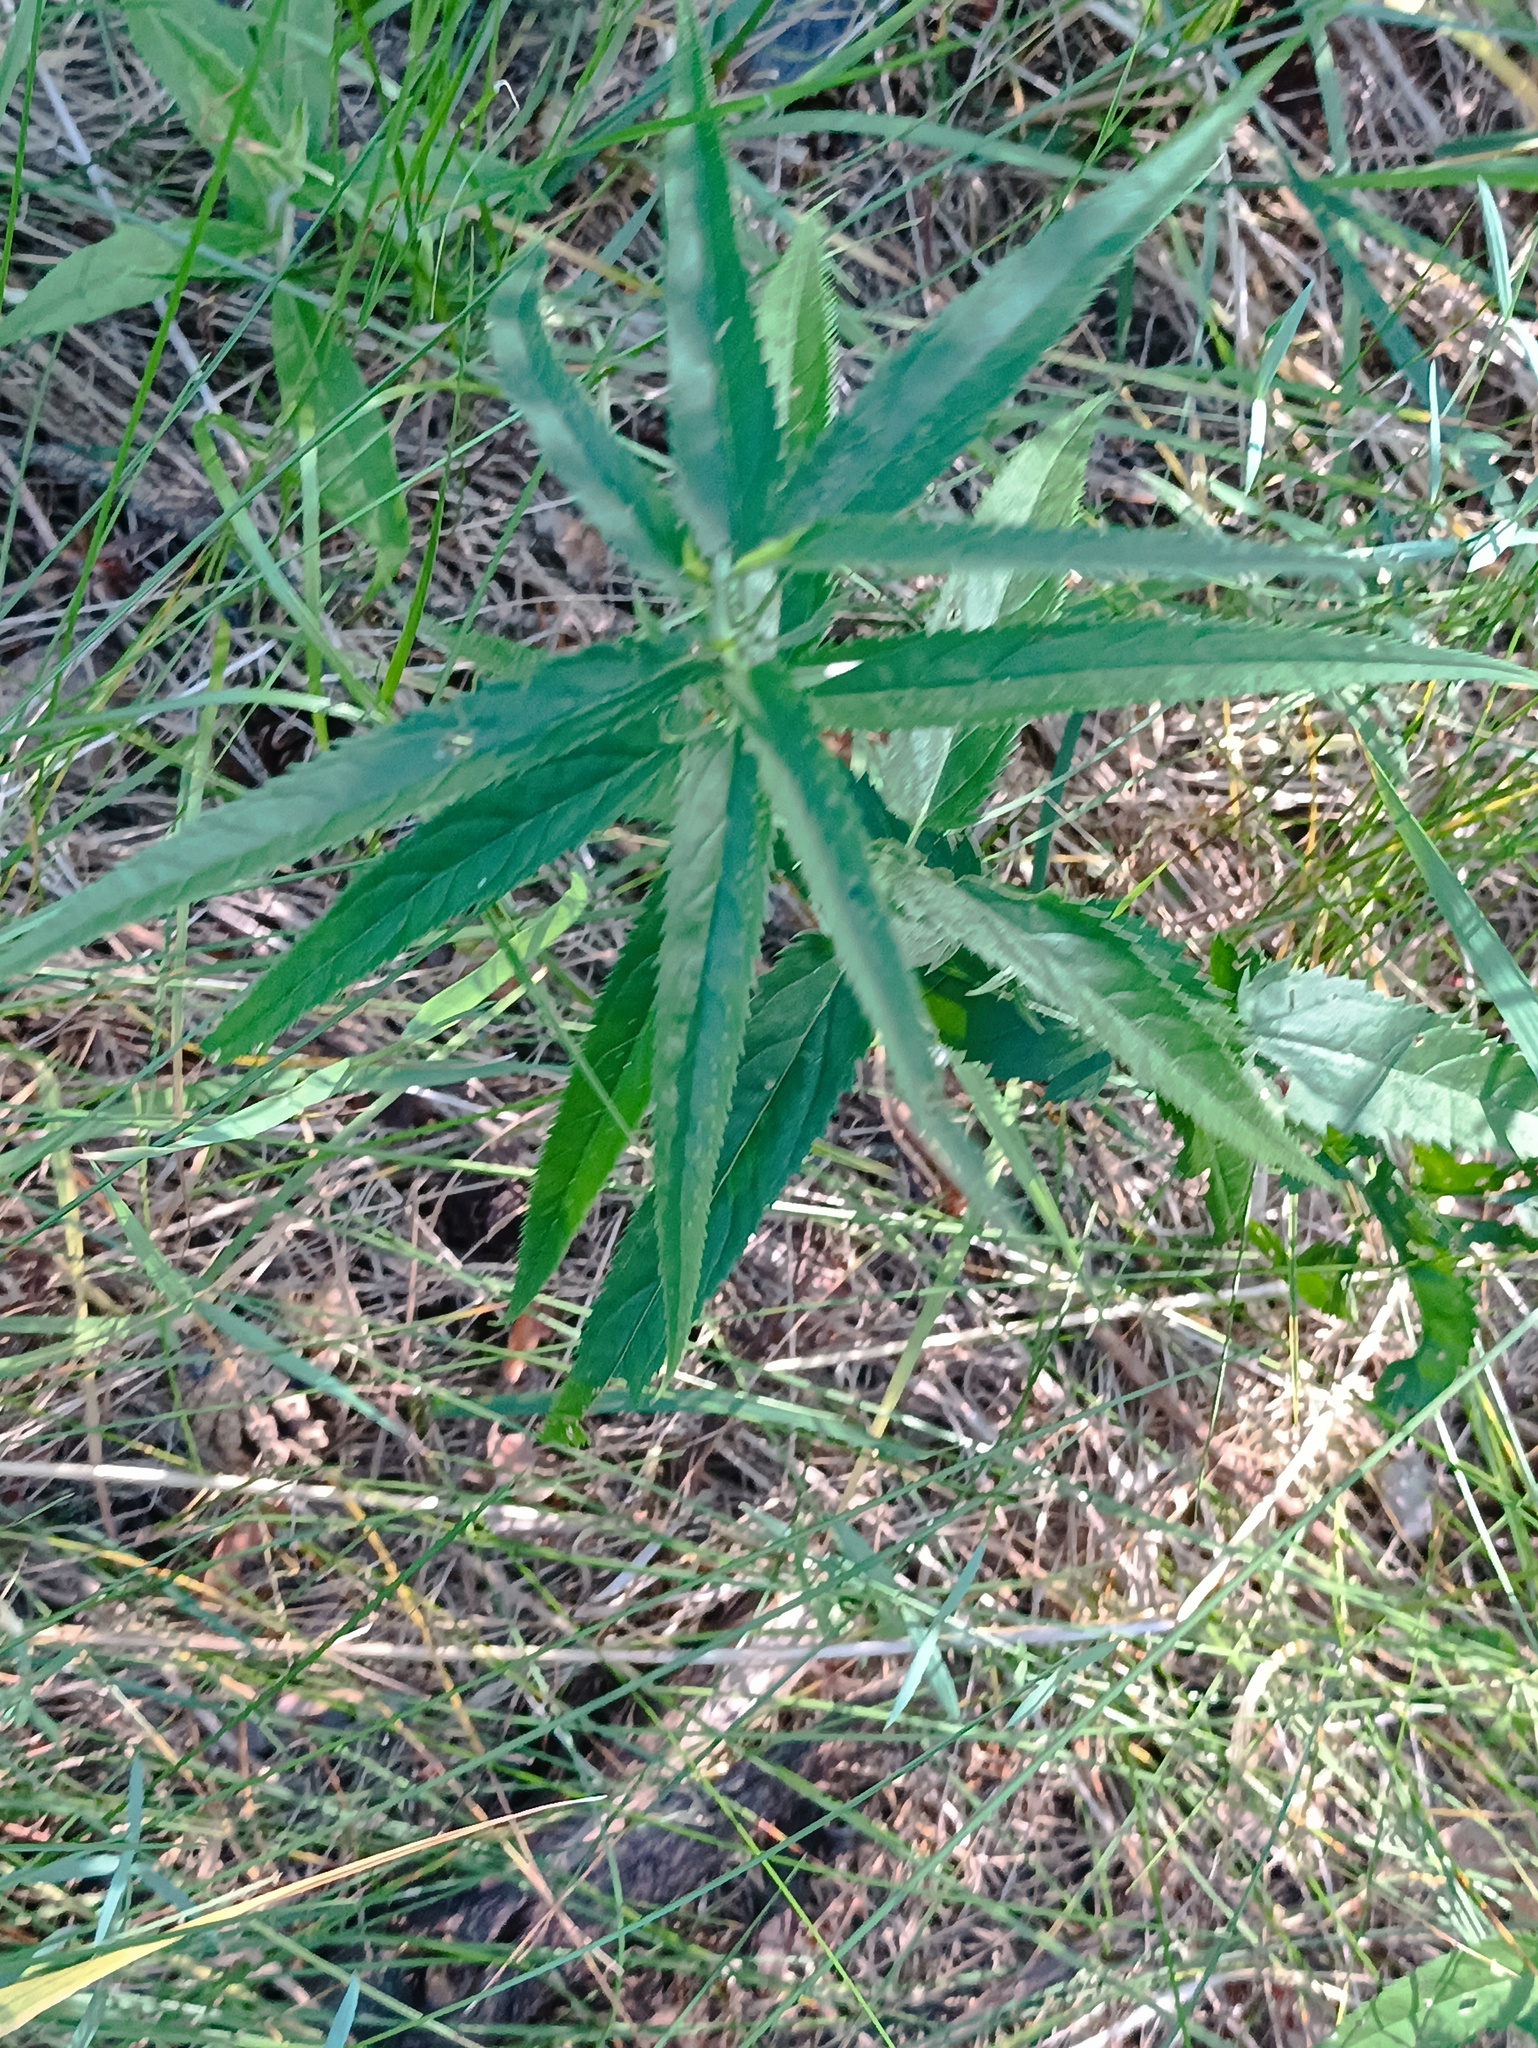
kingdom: Plantae
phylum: Tracheophyta
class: Magnoliopsida
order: Lamiales
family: Plantaginaceae
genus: Veronica
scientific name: Veronica longifolia
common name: Garden speedwell
